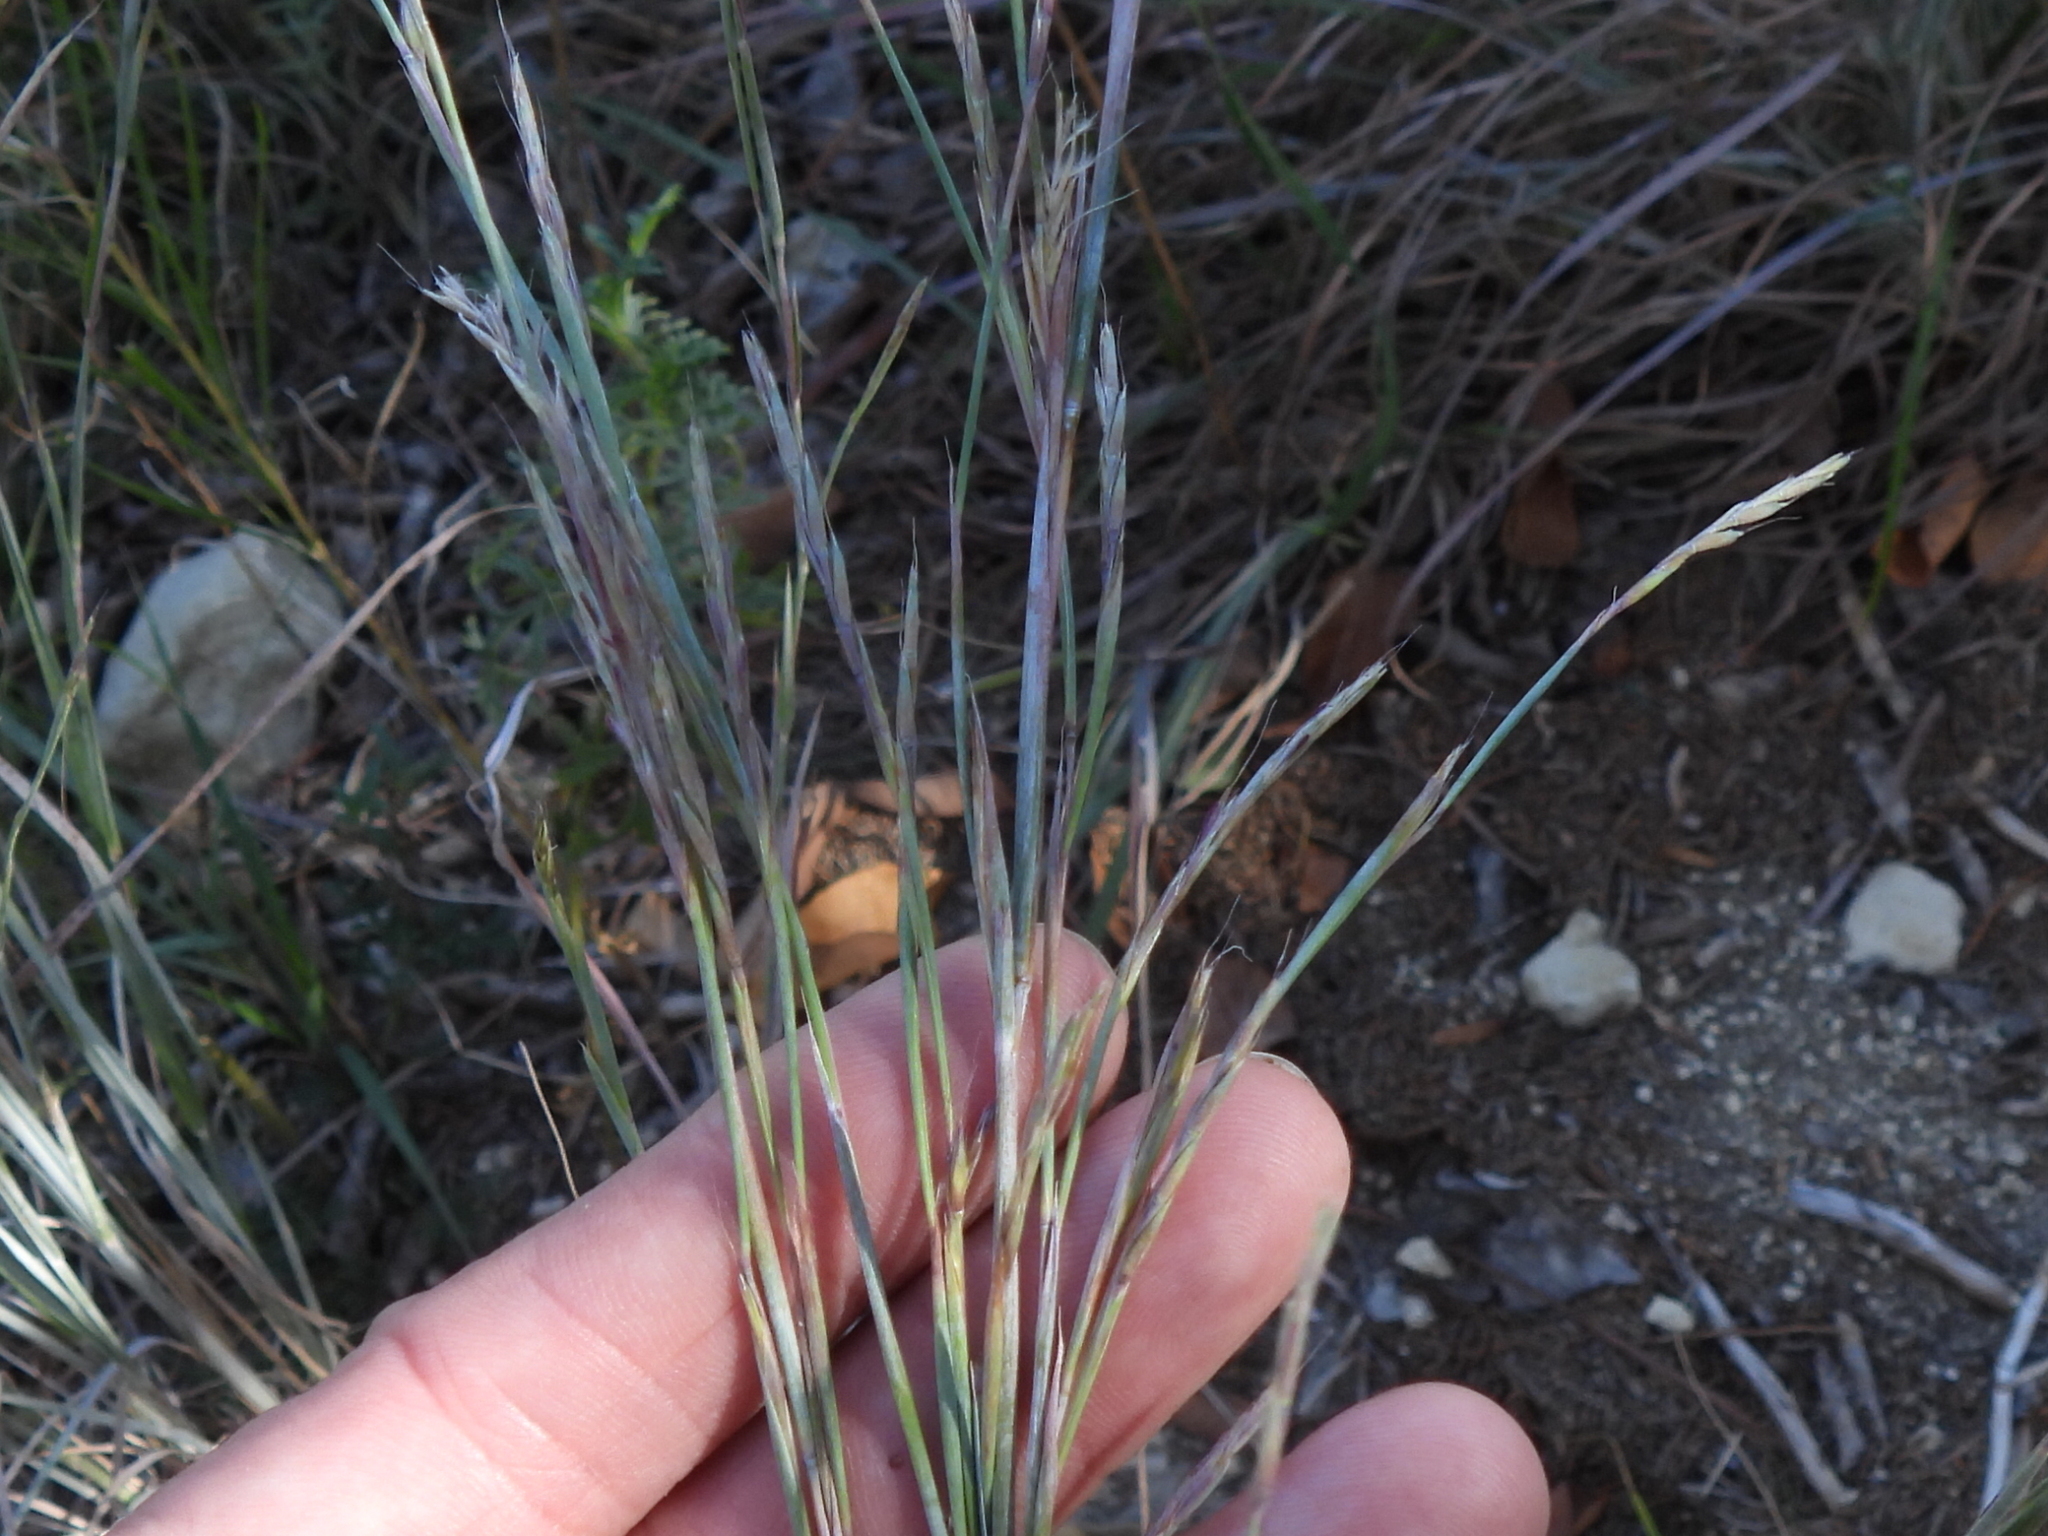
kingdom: Plantae
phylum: Tracheophyta
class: Liliopsida
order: Poales
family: Poaceae
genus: Schizachyrium
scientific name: Schizachyrium scoparium
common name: Little bluestem
